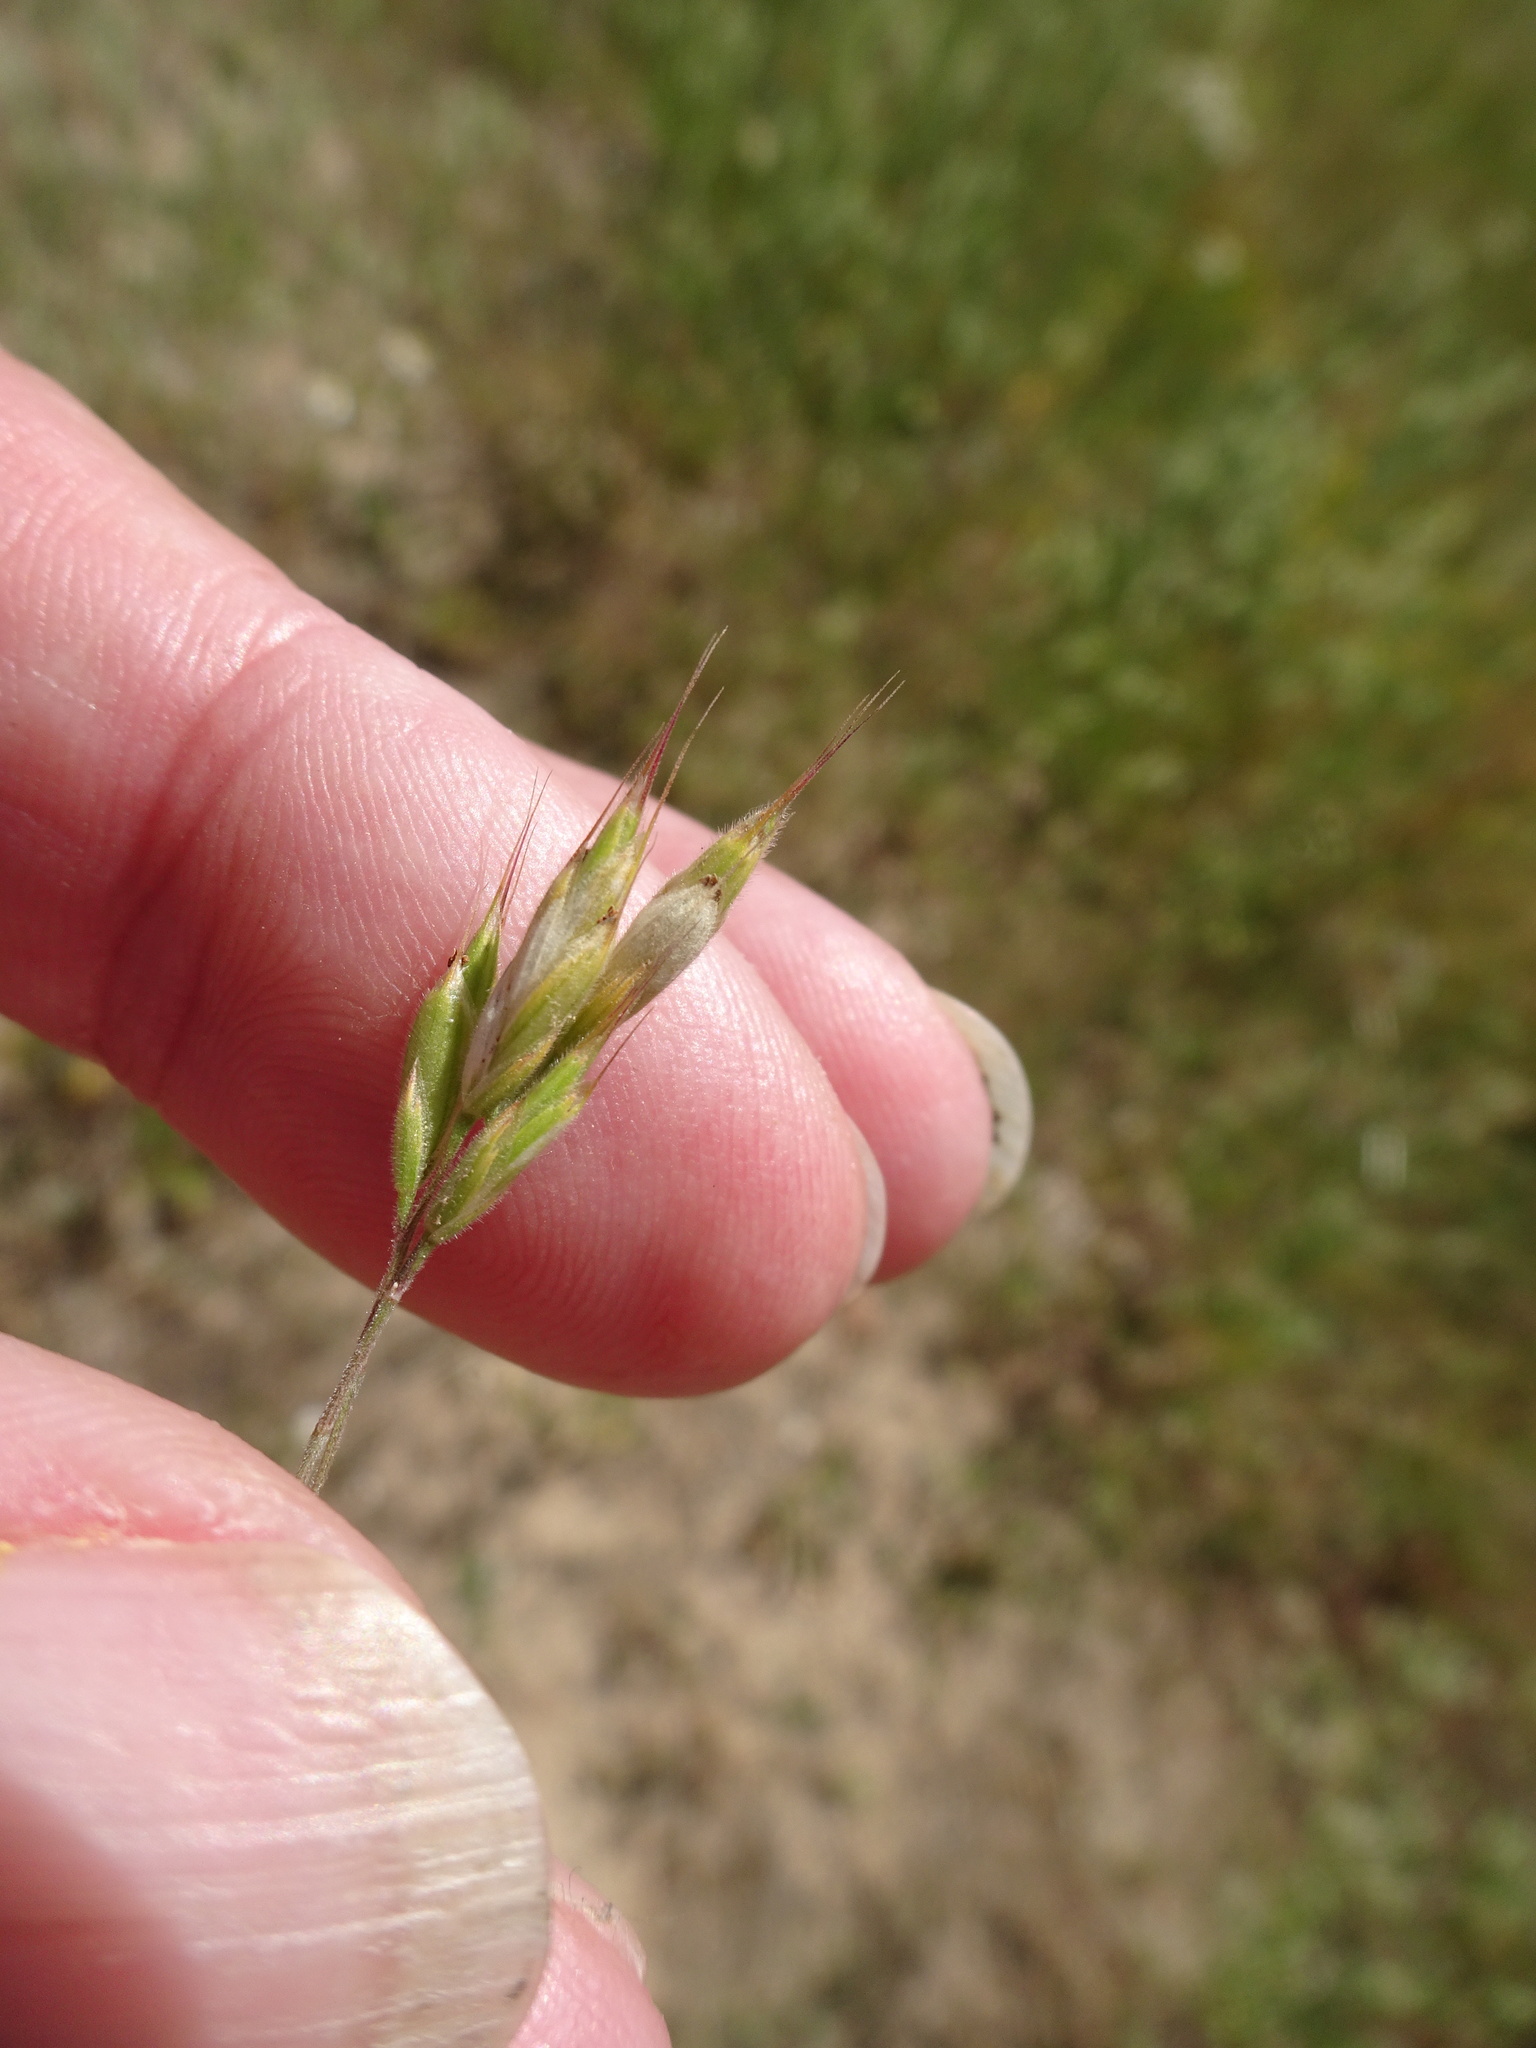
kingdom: Plantae
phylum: Tracheophyta
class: Liliopsida
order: Poales
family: Poaceae
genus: Bromus
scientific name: Bromus hordeaceus
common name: Soft brome
